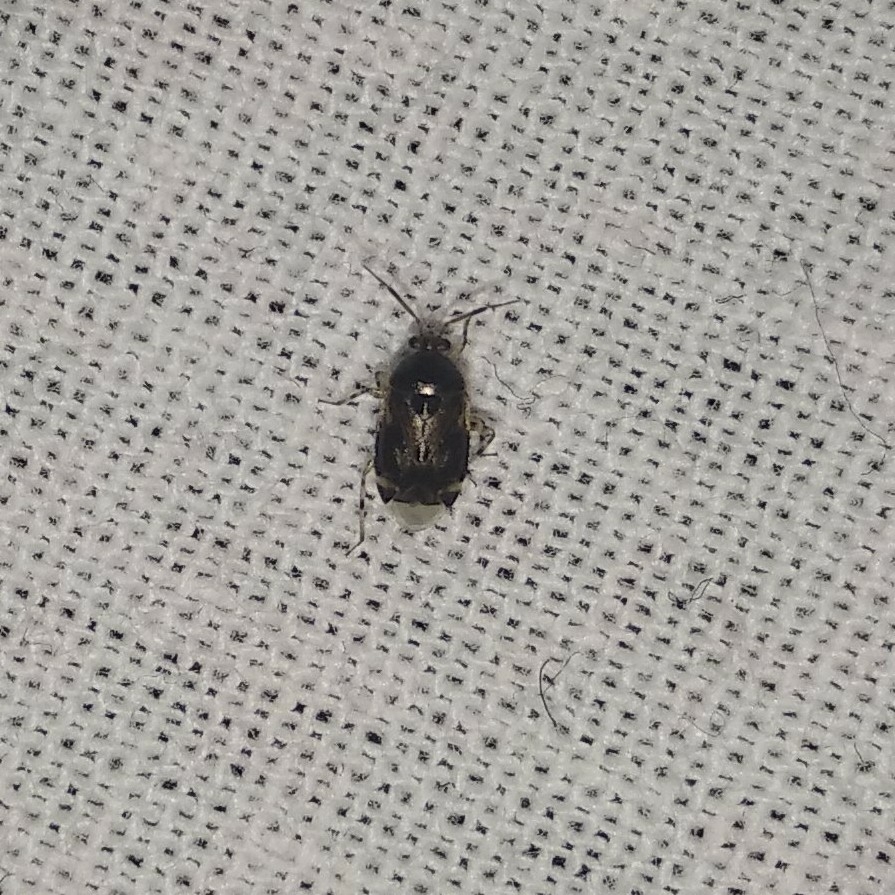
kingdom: Animalia
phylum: Arthropoda
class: Insecta
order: Hemiptera
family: Miridae
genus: Deraeocoris
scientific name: Deraeocoris lutescens
